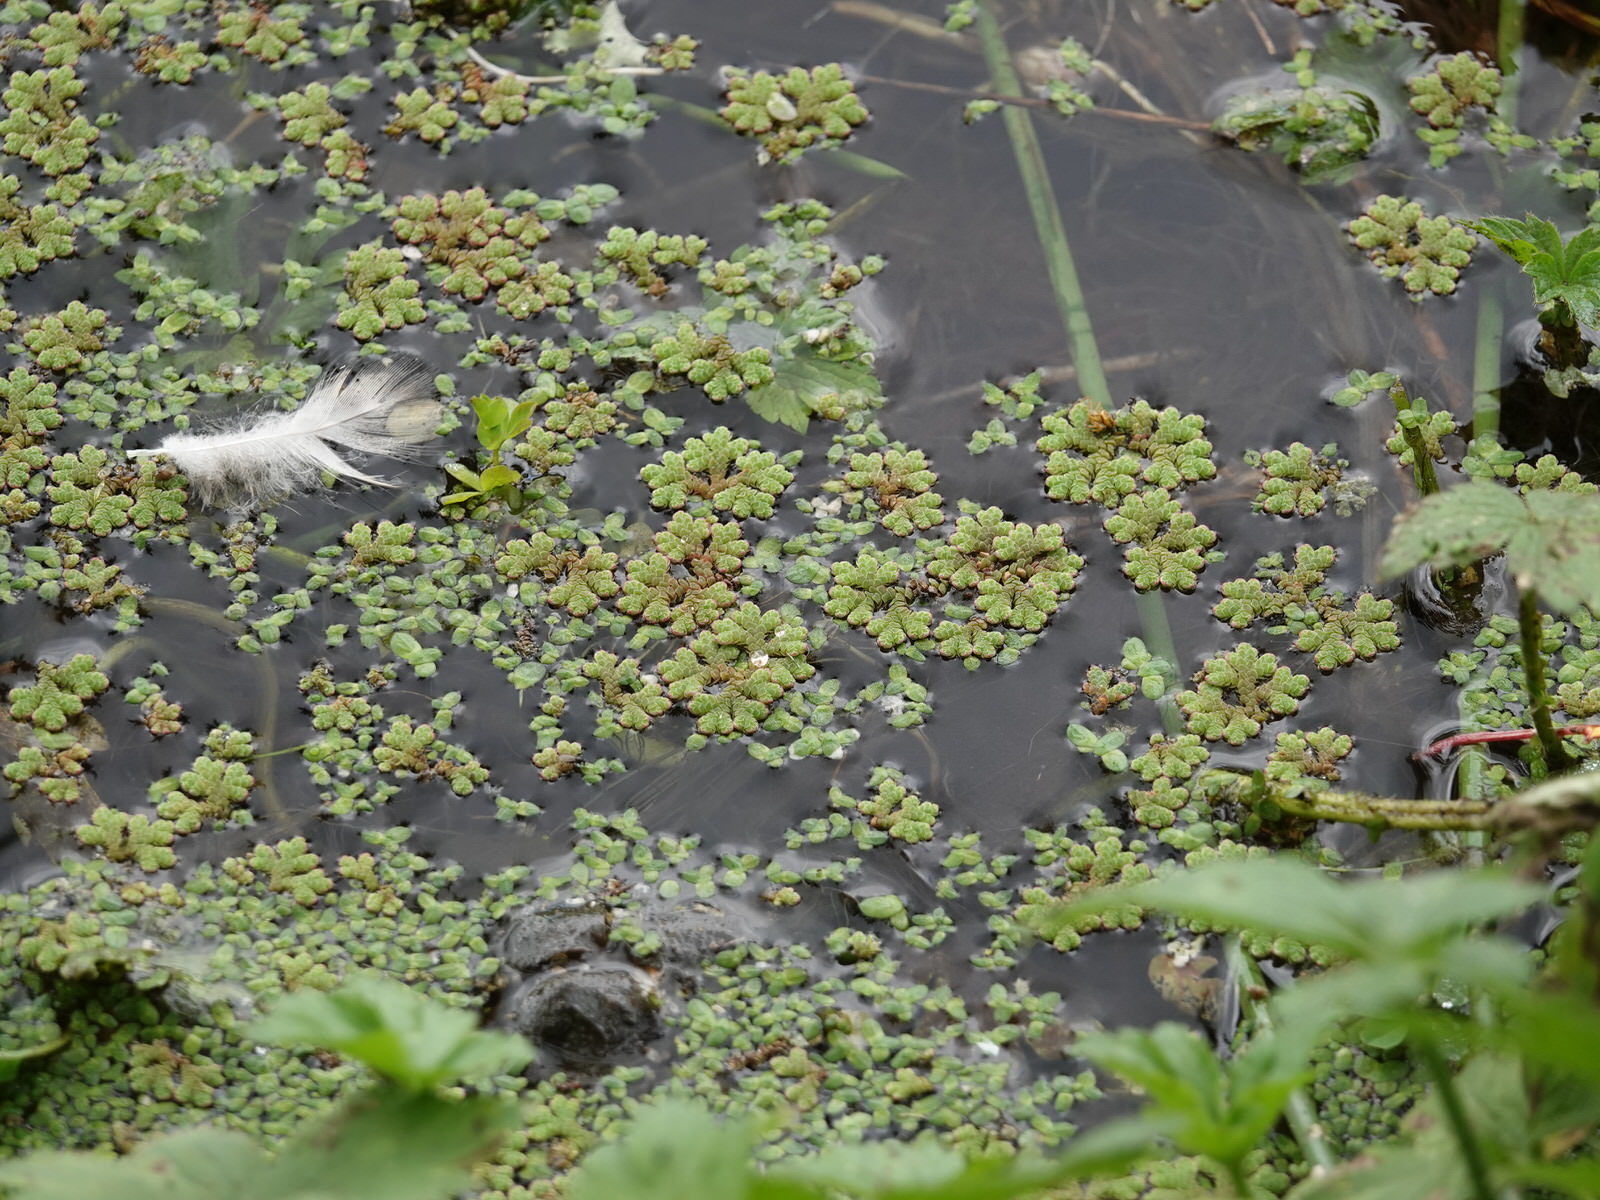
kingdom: Plantae
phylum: Tracheophyta
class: Polypodiopsida
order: Salviniales
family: Salviniaceae
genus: Azolla
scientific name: Azolla rubra
